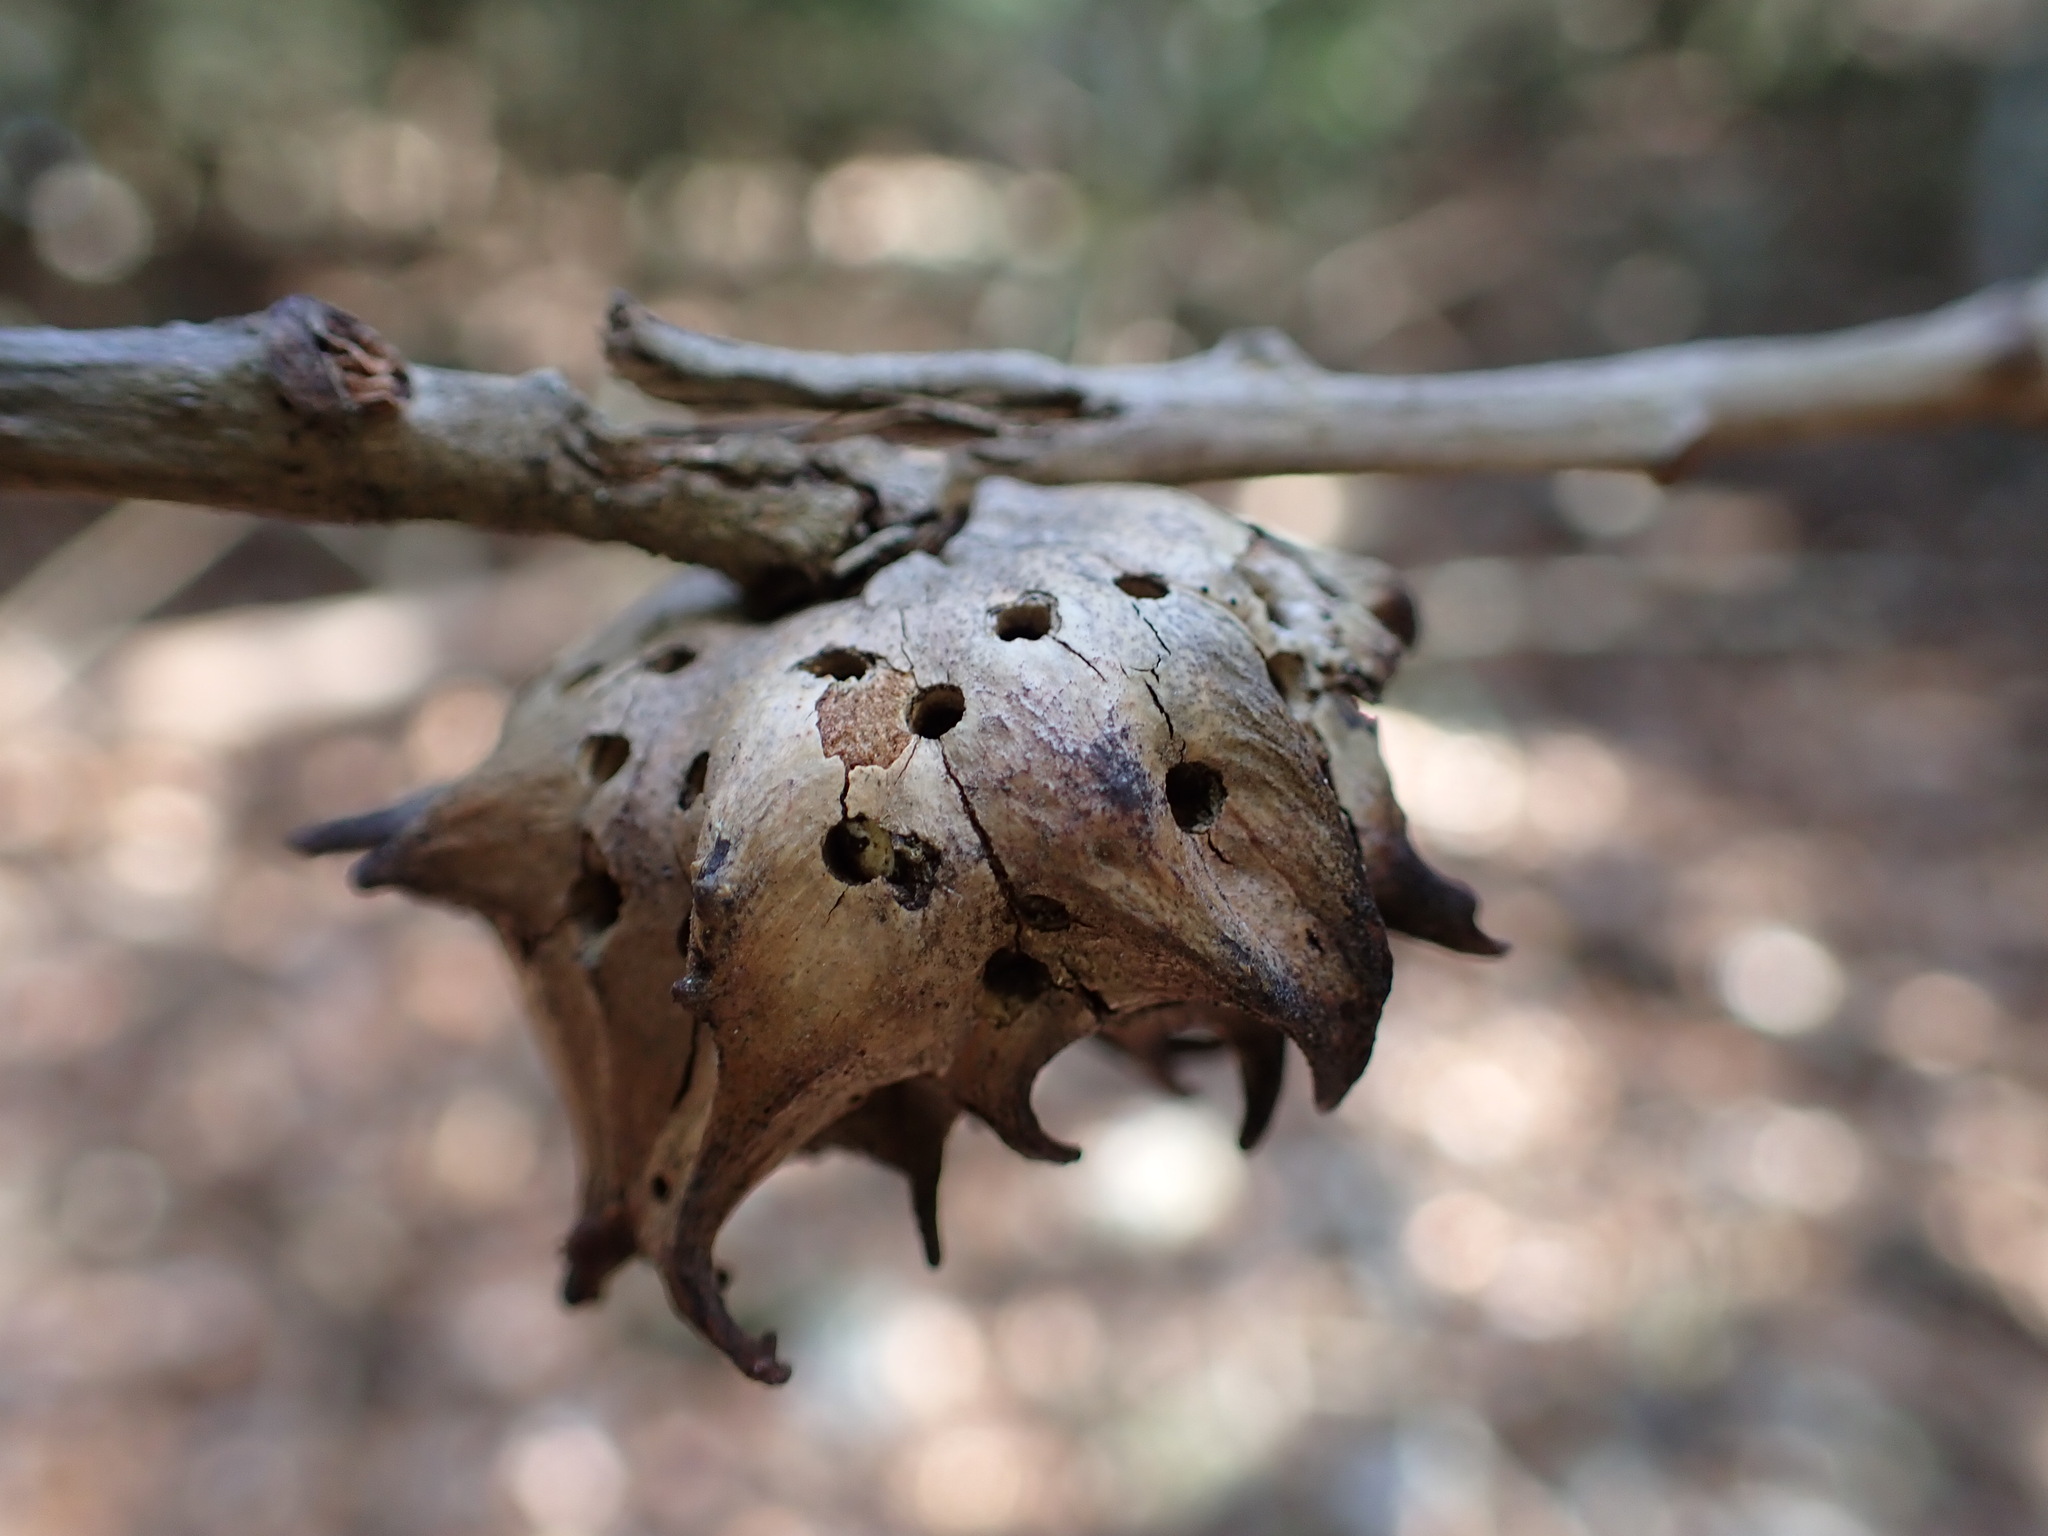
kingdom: Animalia
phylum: Arthropoda
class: Insecta
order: Hymenoptera
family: Cynipidae
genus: Andricus
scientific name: Andricus coriarius
